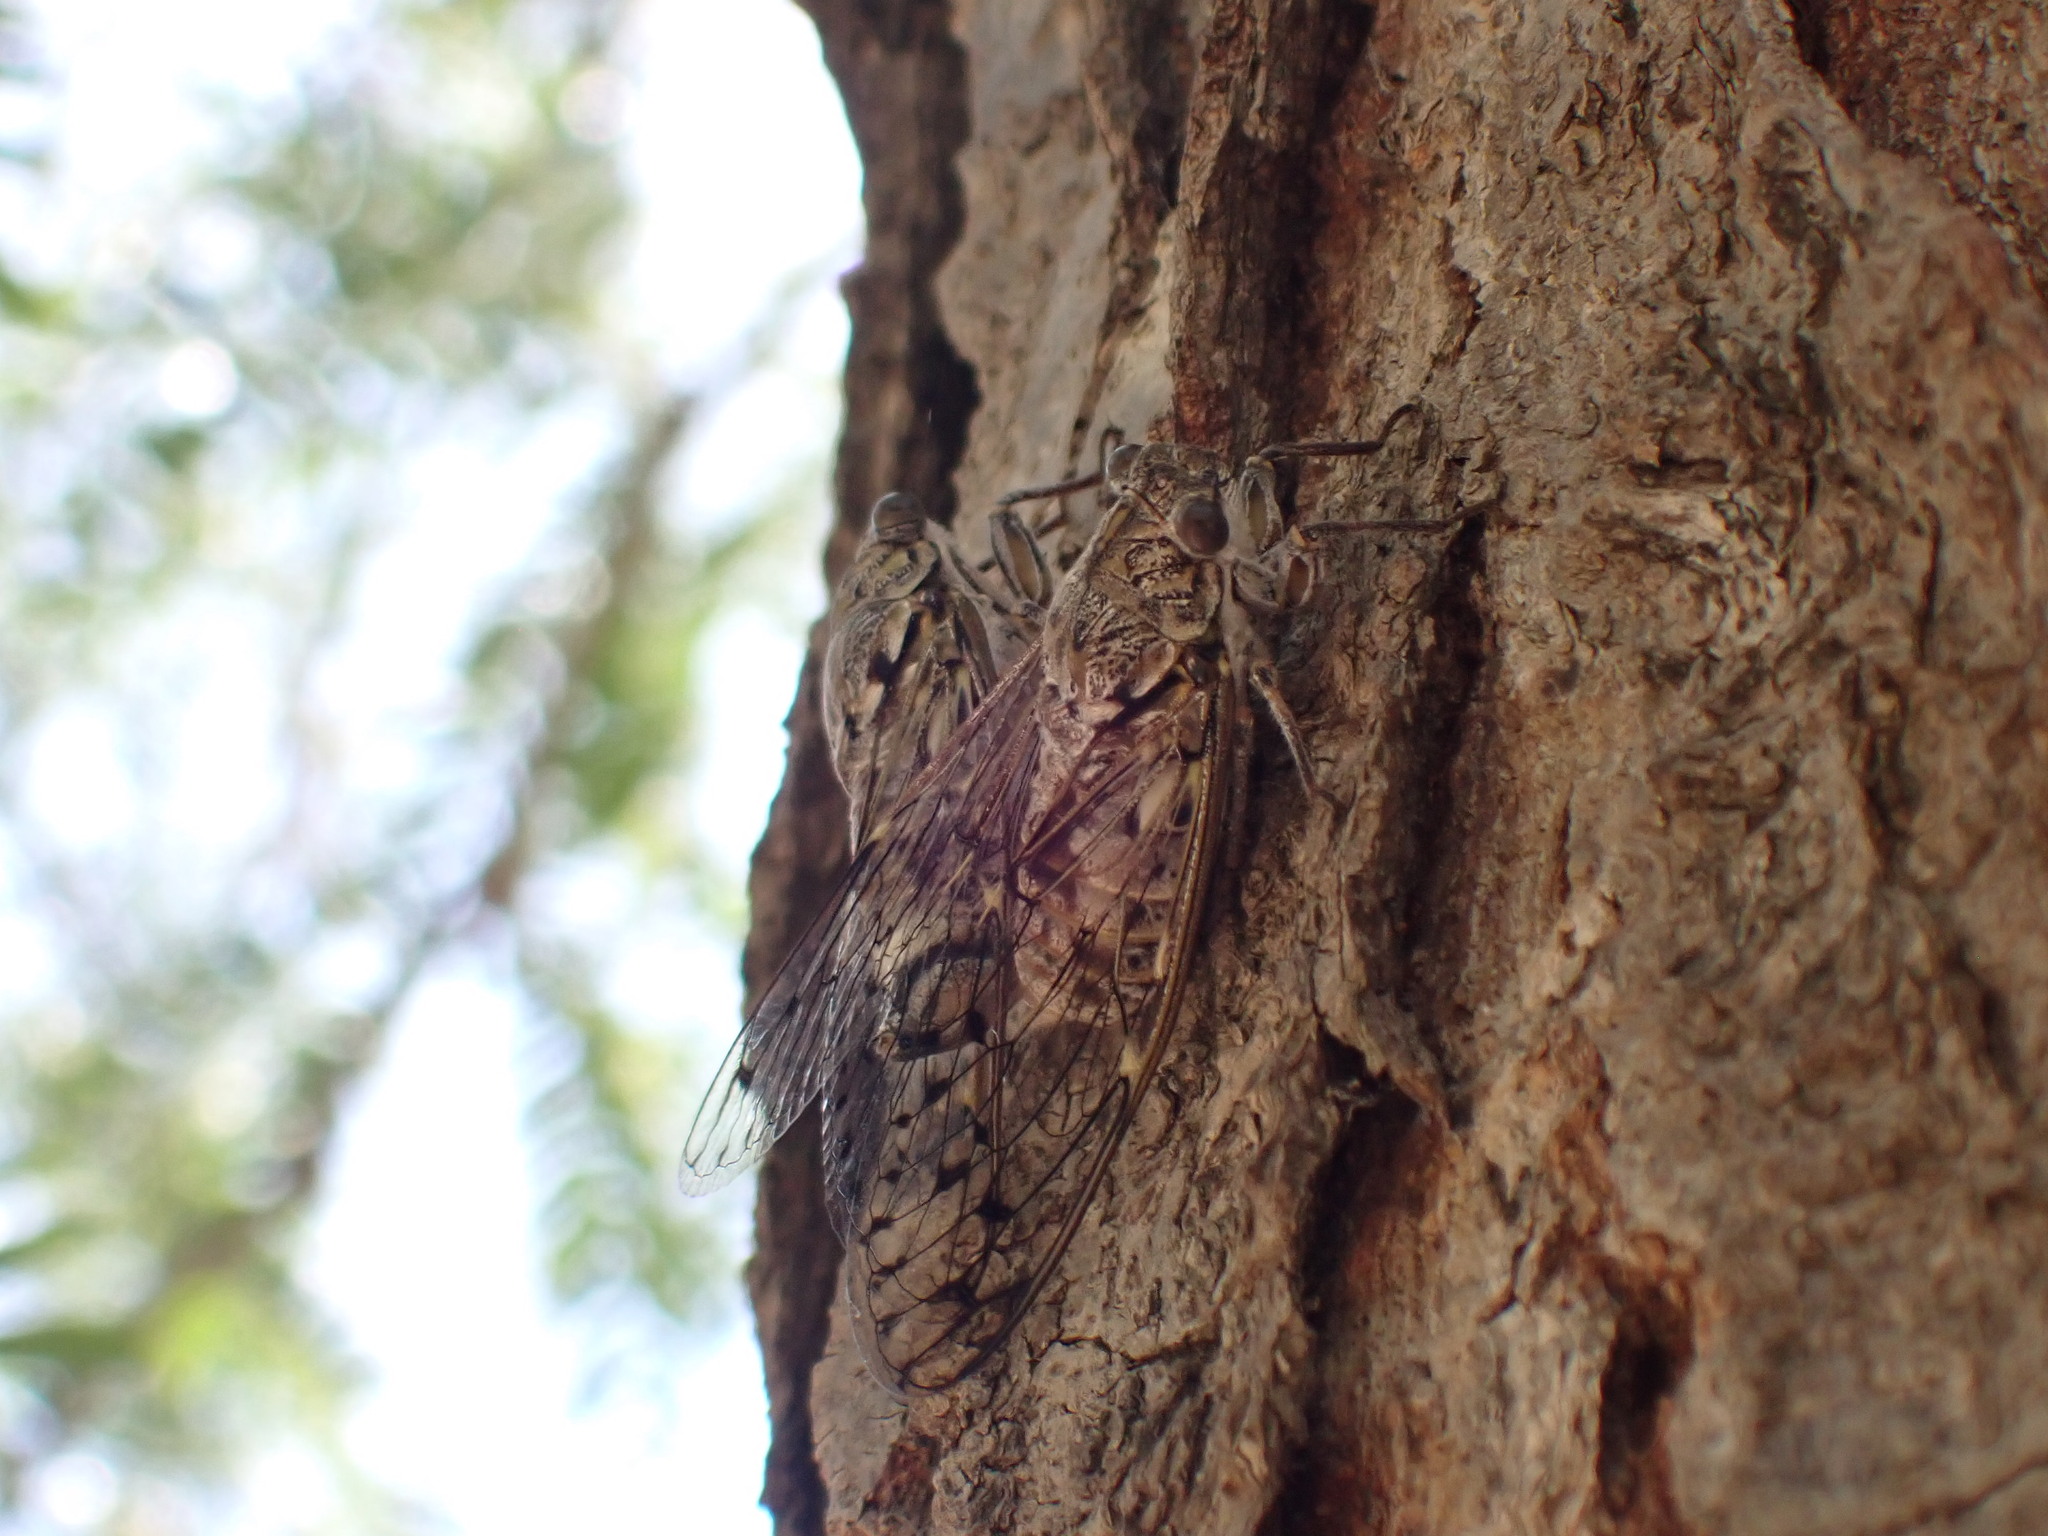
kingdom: Animalia
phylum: Arthropoda
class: Insecta
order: Hemiptera
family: Cicadidae
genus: Cicada
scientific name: Cicada orni
